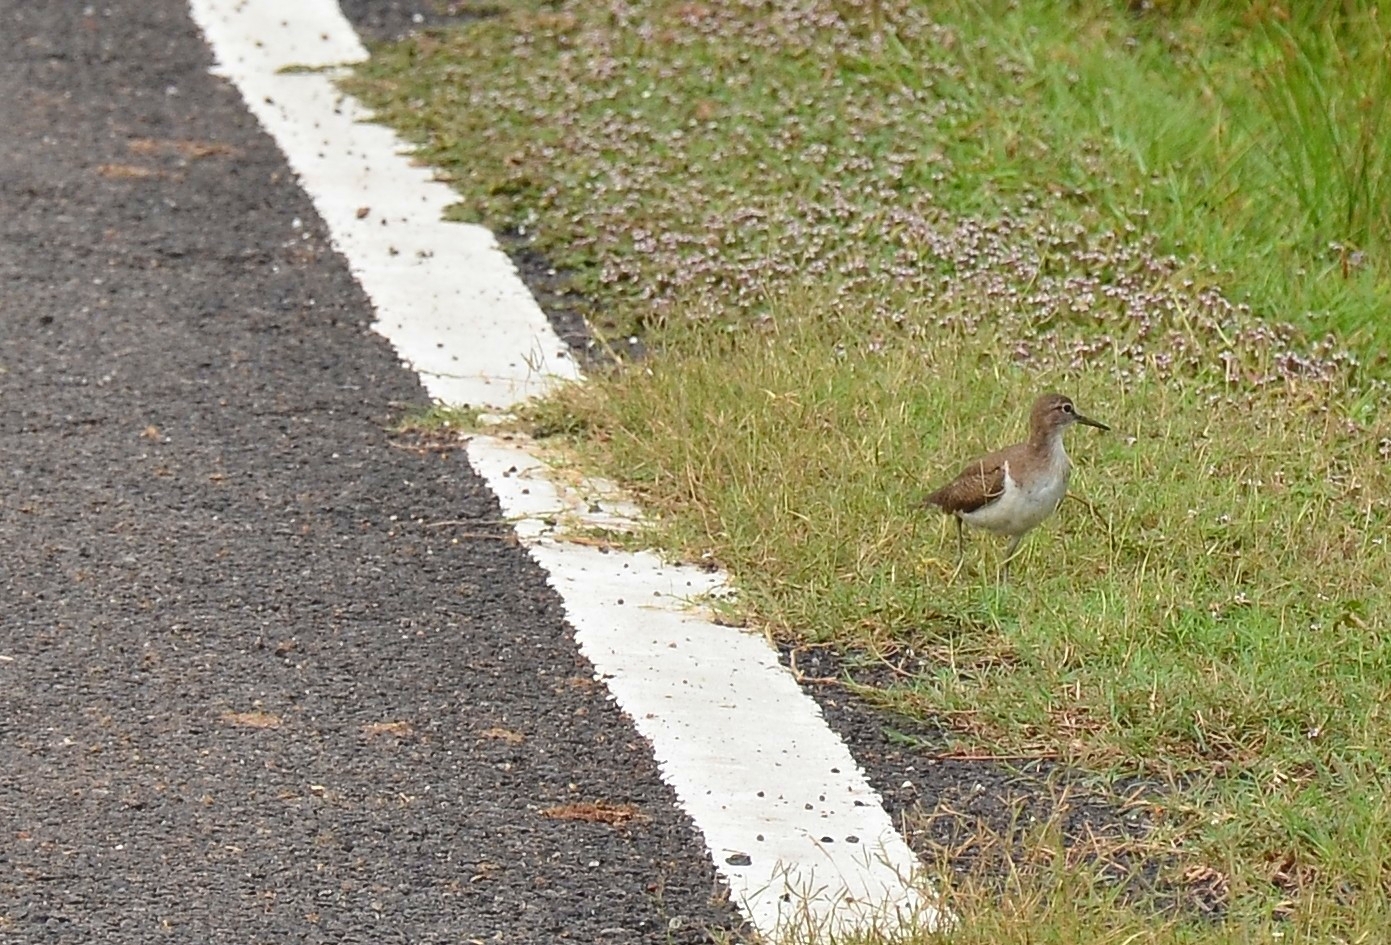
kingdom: Animalia
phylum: Chordata
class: Aves
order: Charadriiformes
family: Scolopacidae
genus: Actitis
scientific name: Actitis hypoleucos
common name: Common sandpiper
